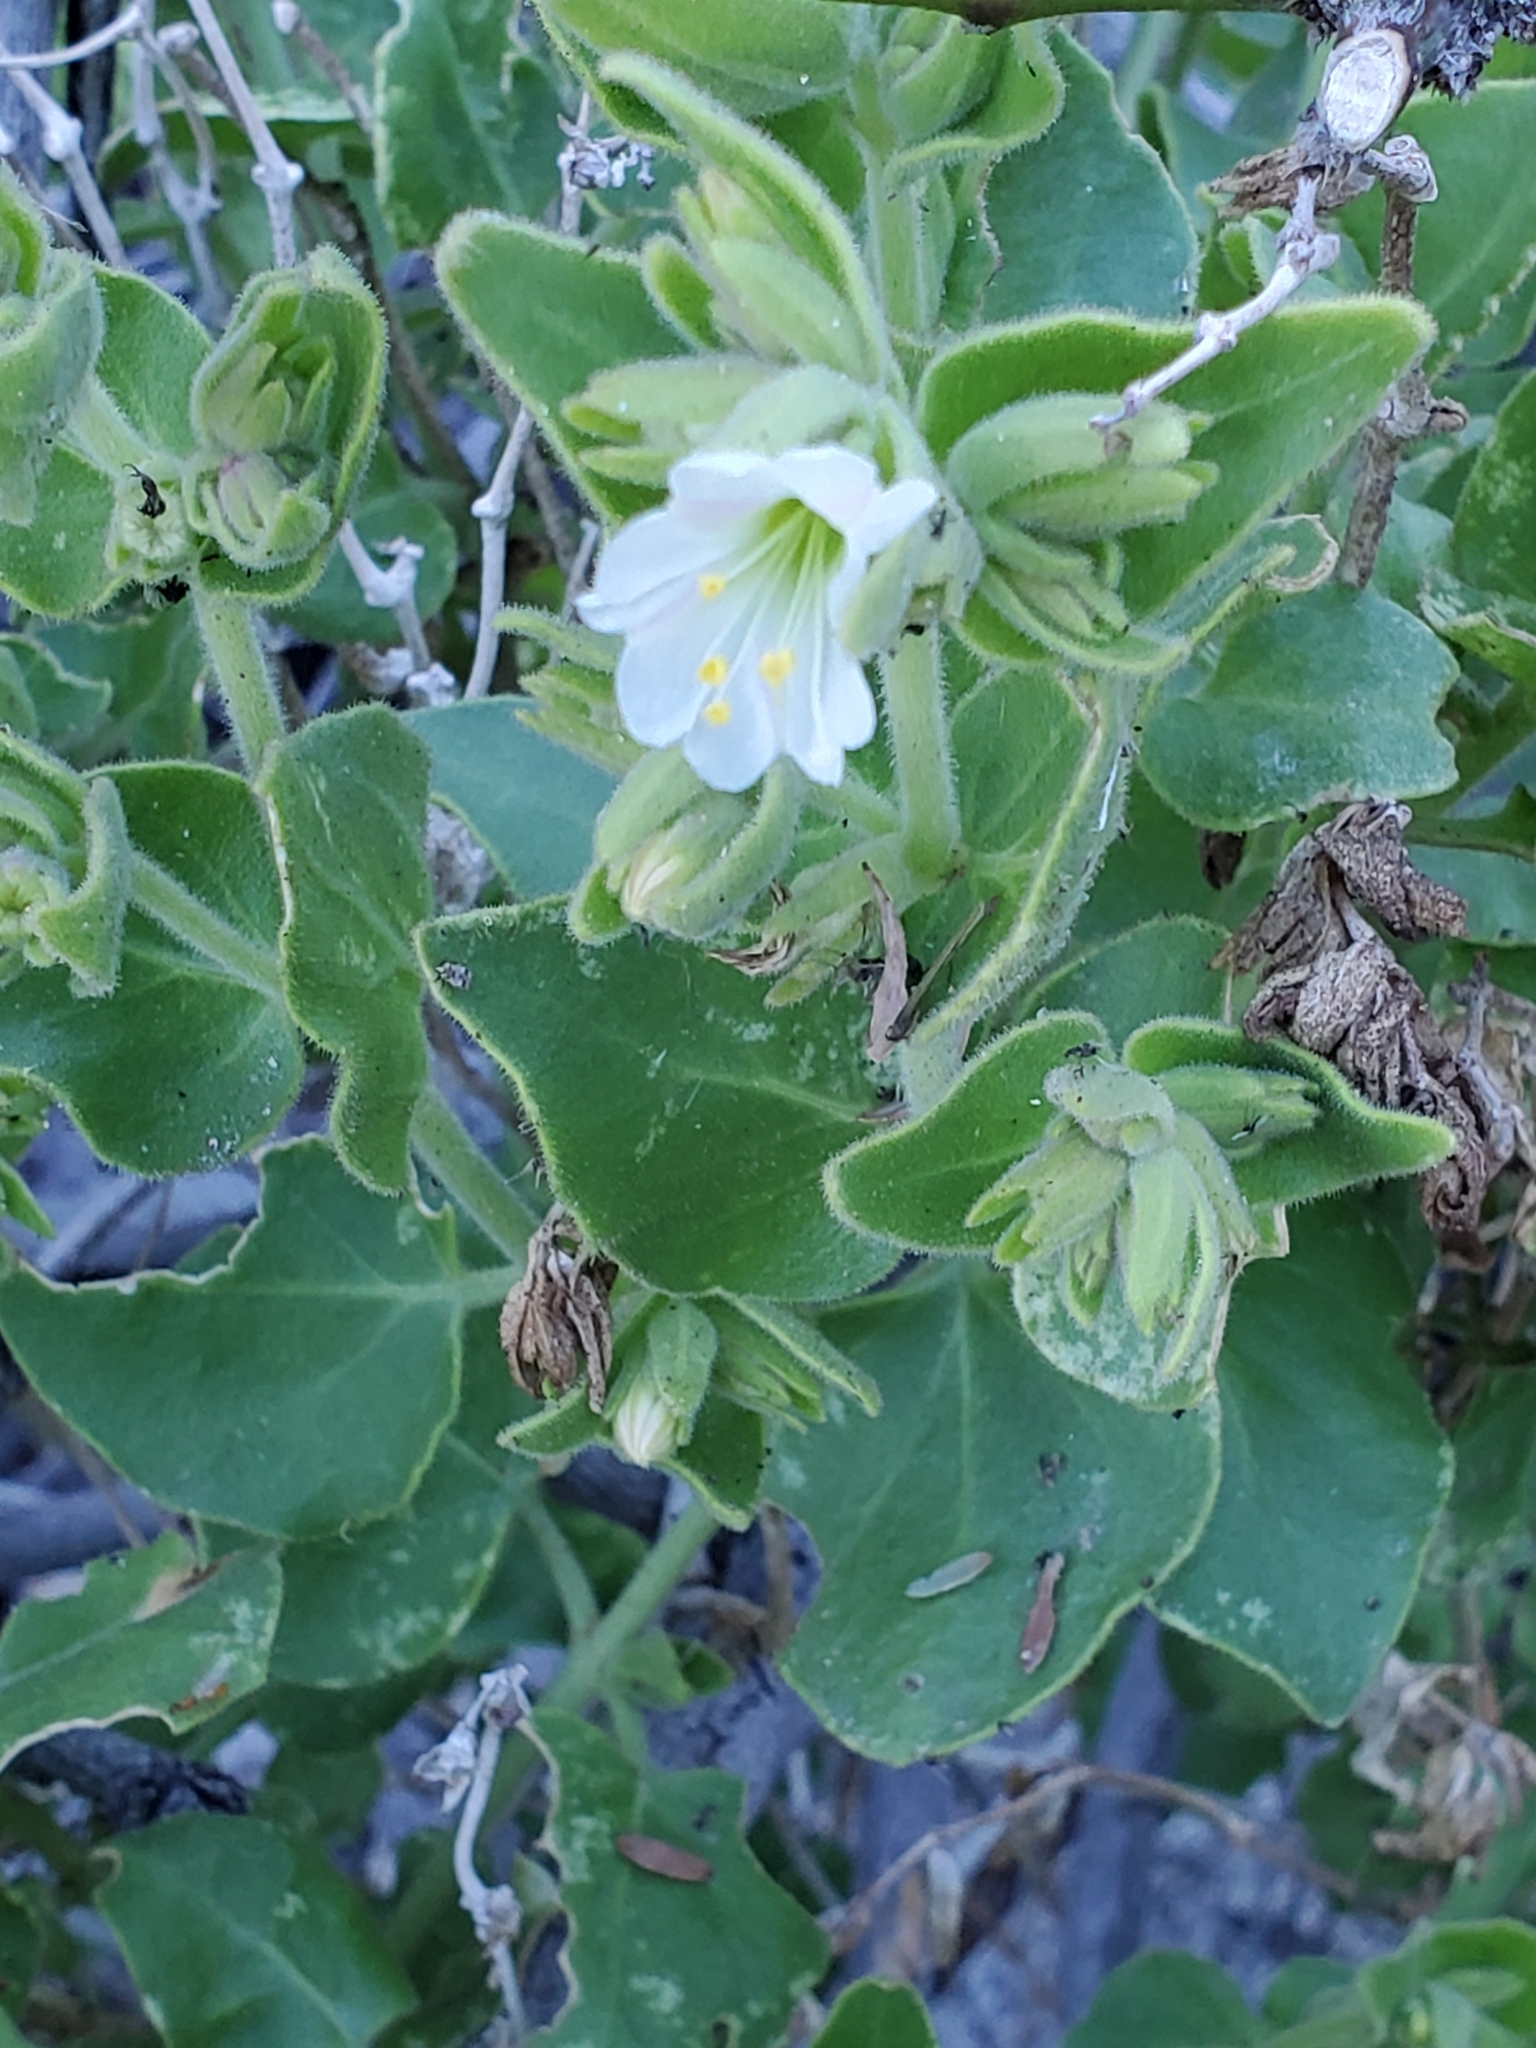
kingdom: Plantae
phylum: Tracheophyta
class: Magnoliopsida
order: Caryophyllales
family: Nyctaginaceae
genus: Mirabilis
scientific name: Mirabilis tenuiloba
